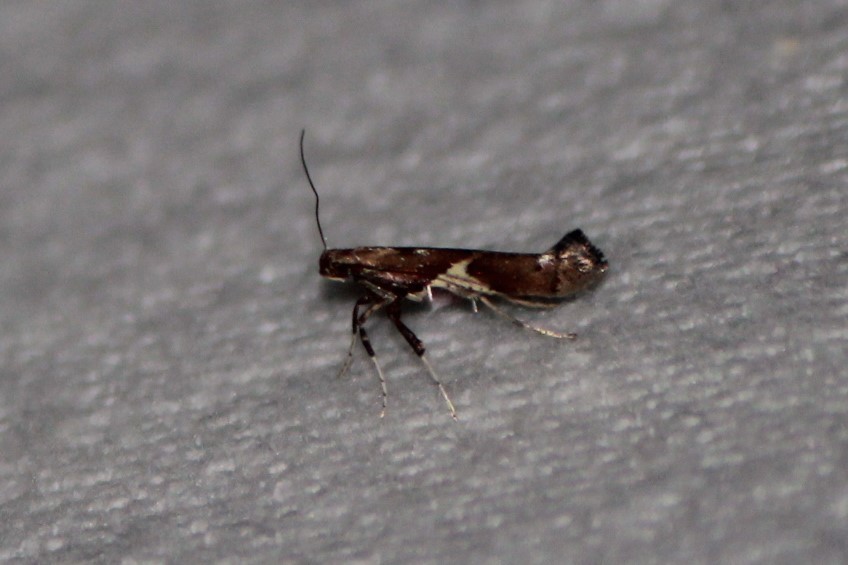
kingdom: Animalia
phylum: Arthropoda
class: Insecta
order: Lepidoptera
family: Gracillariidae
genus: Caloptilia
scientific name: Caloptilia stigmatella
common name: White-triangle slender
